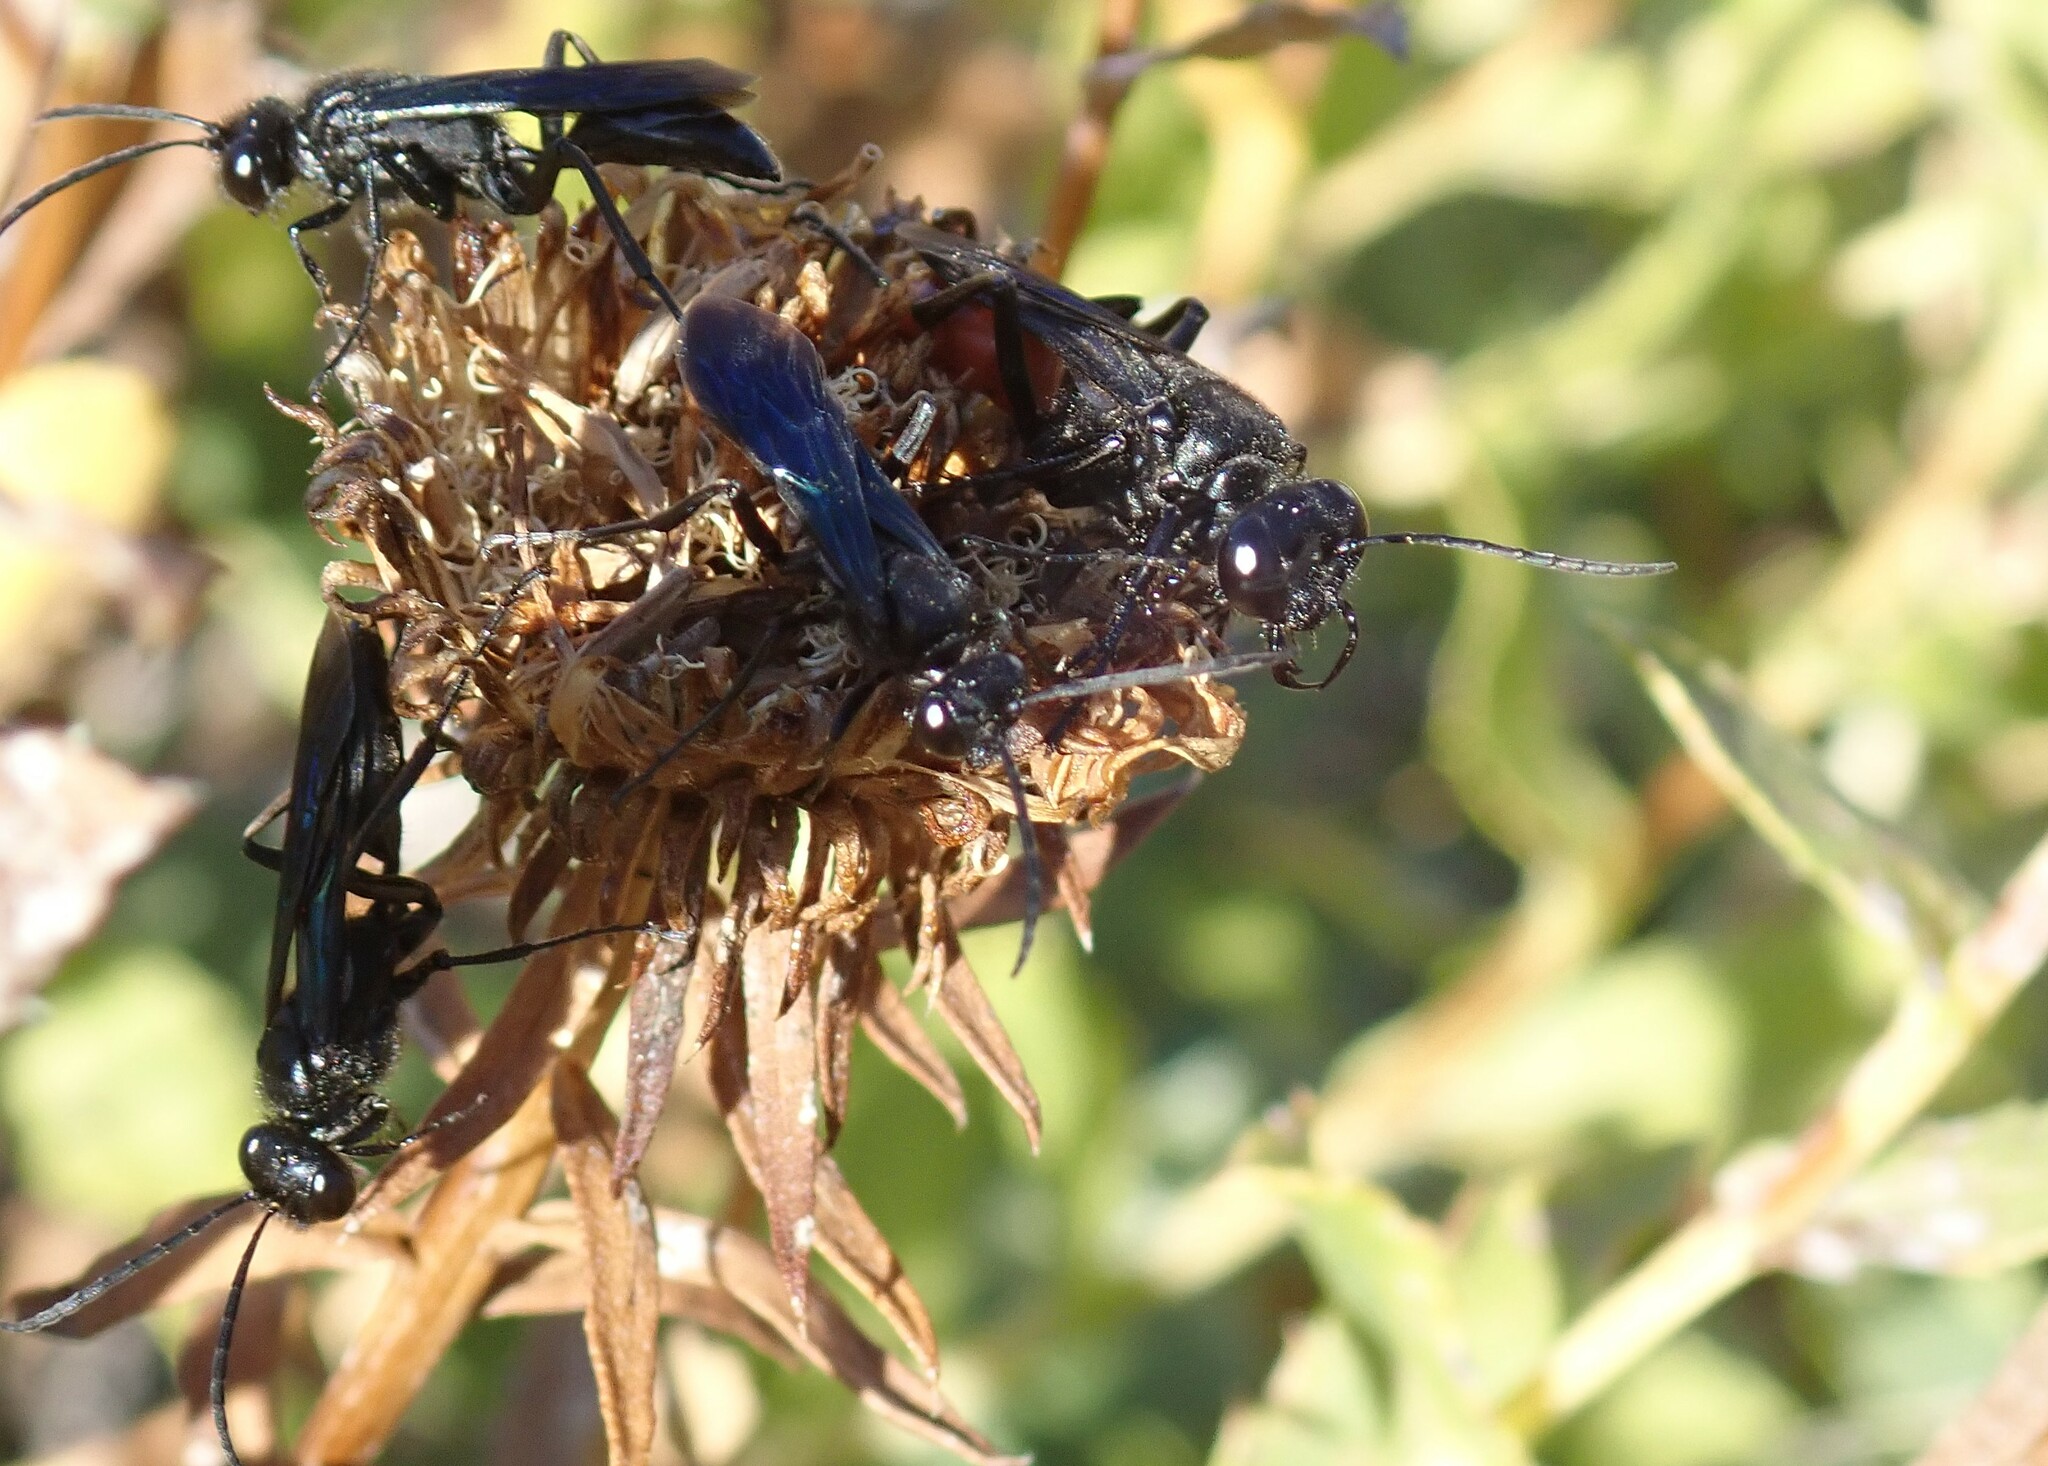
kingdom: Animalia
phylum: Arthropoda
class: Insecta
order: Hymenoptera
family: Sphecidae
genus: Sphex
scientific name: Sphex lucae
